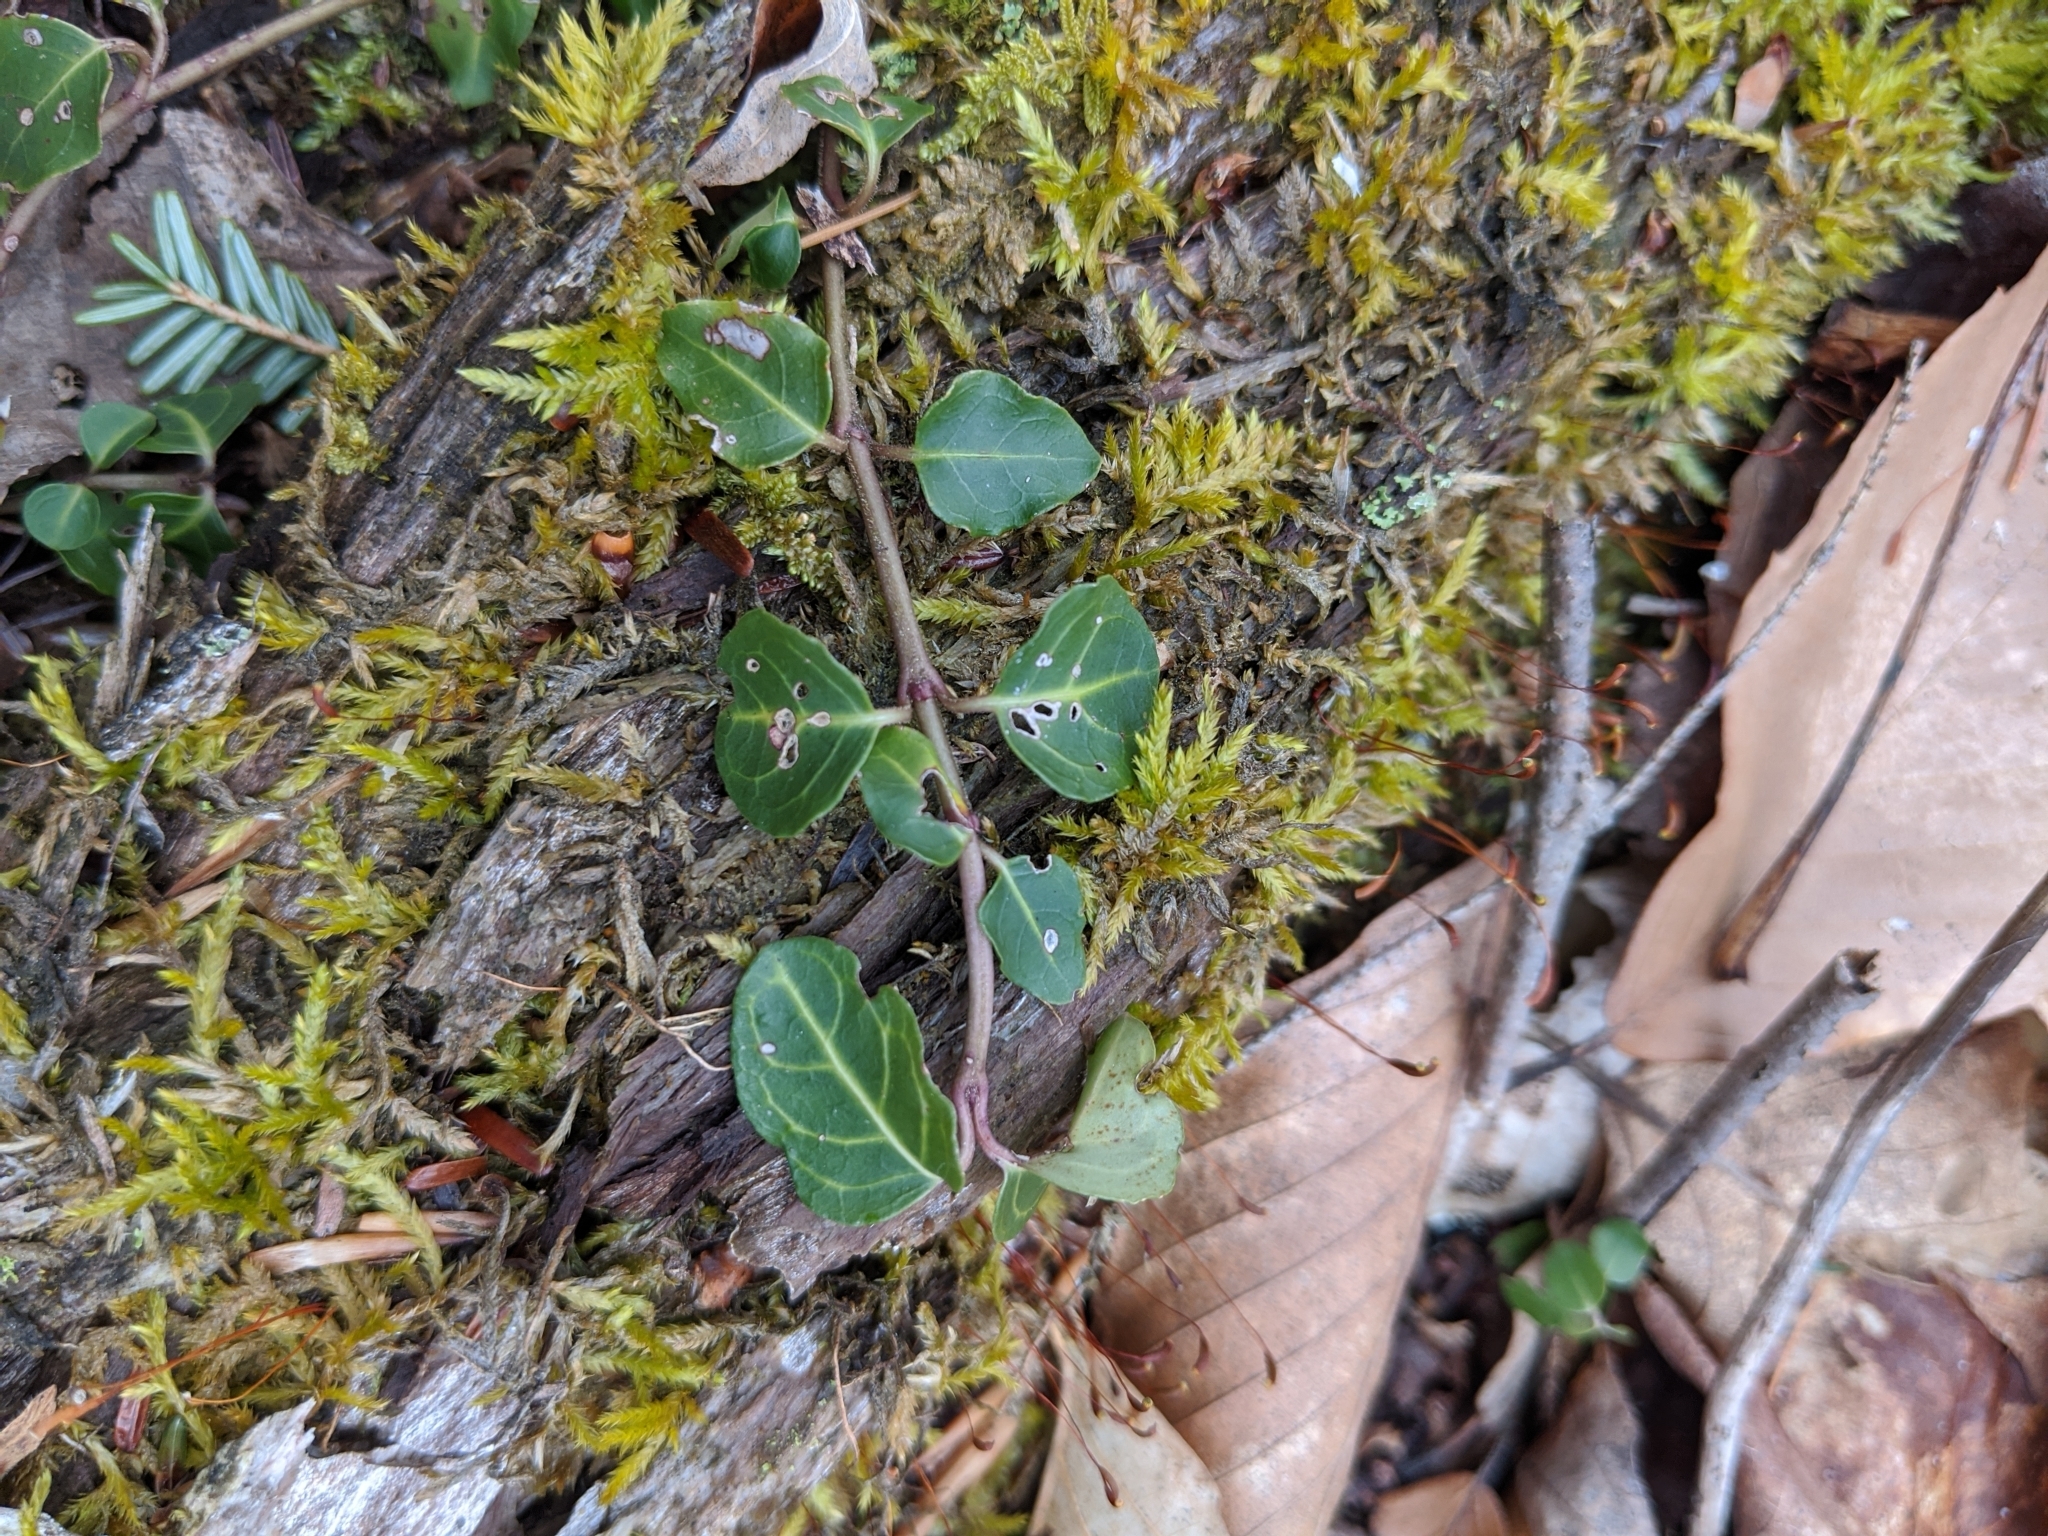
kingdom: Plantae
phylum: Tracheophyta
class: Magnoliopsida
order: Gentianales
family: Rubiaceae
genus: Mitchella
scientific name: Mitchella repens
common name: Partridge-berry
